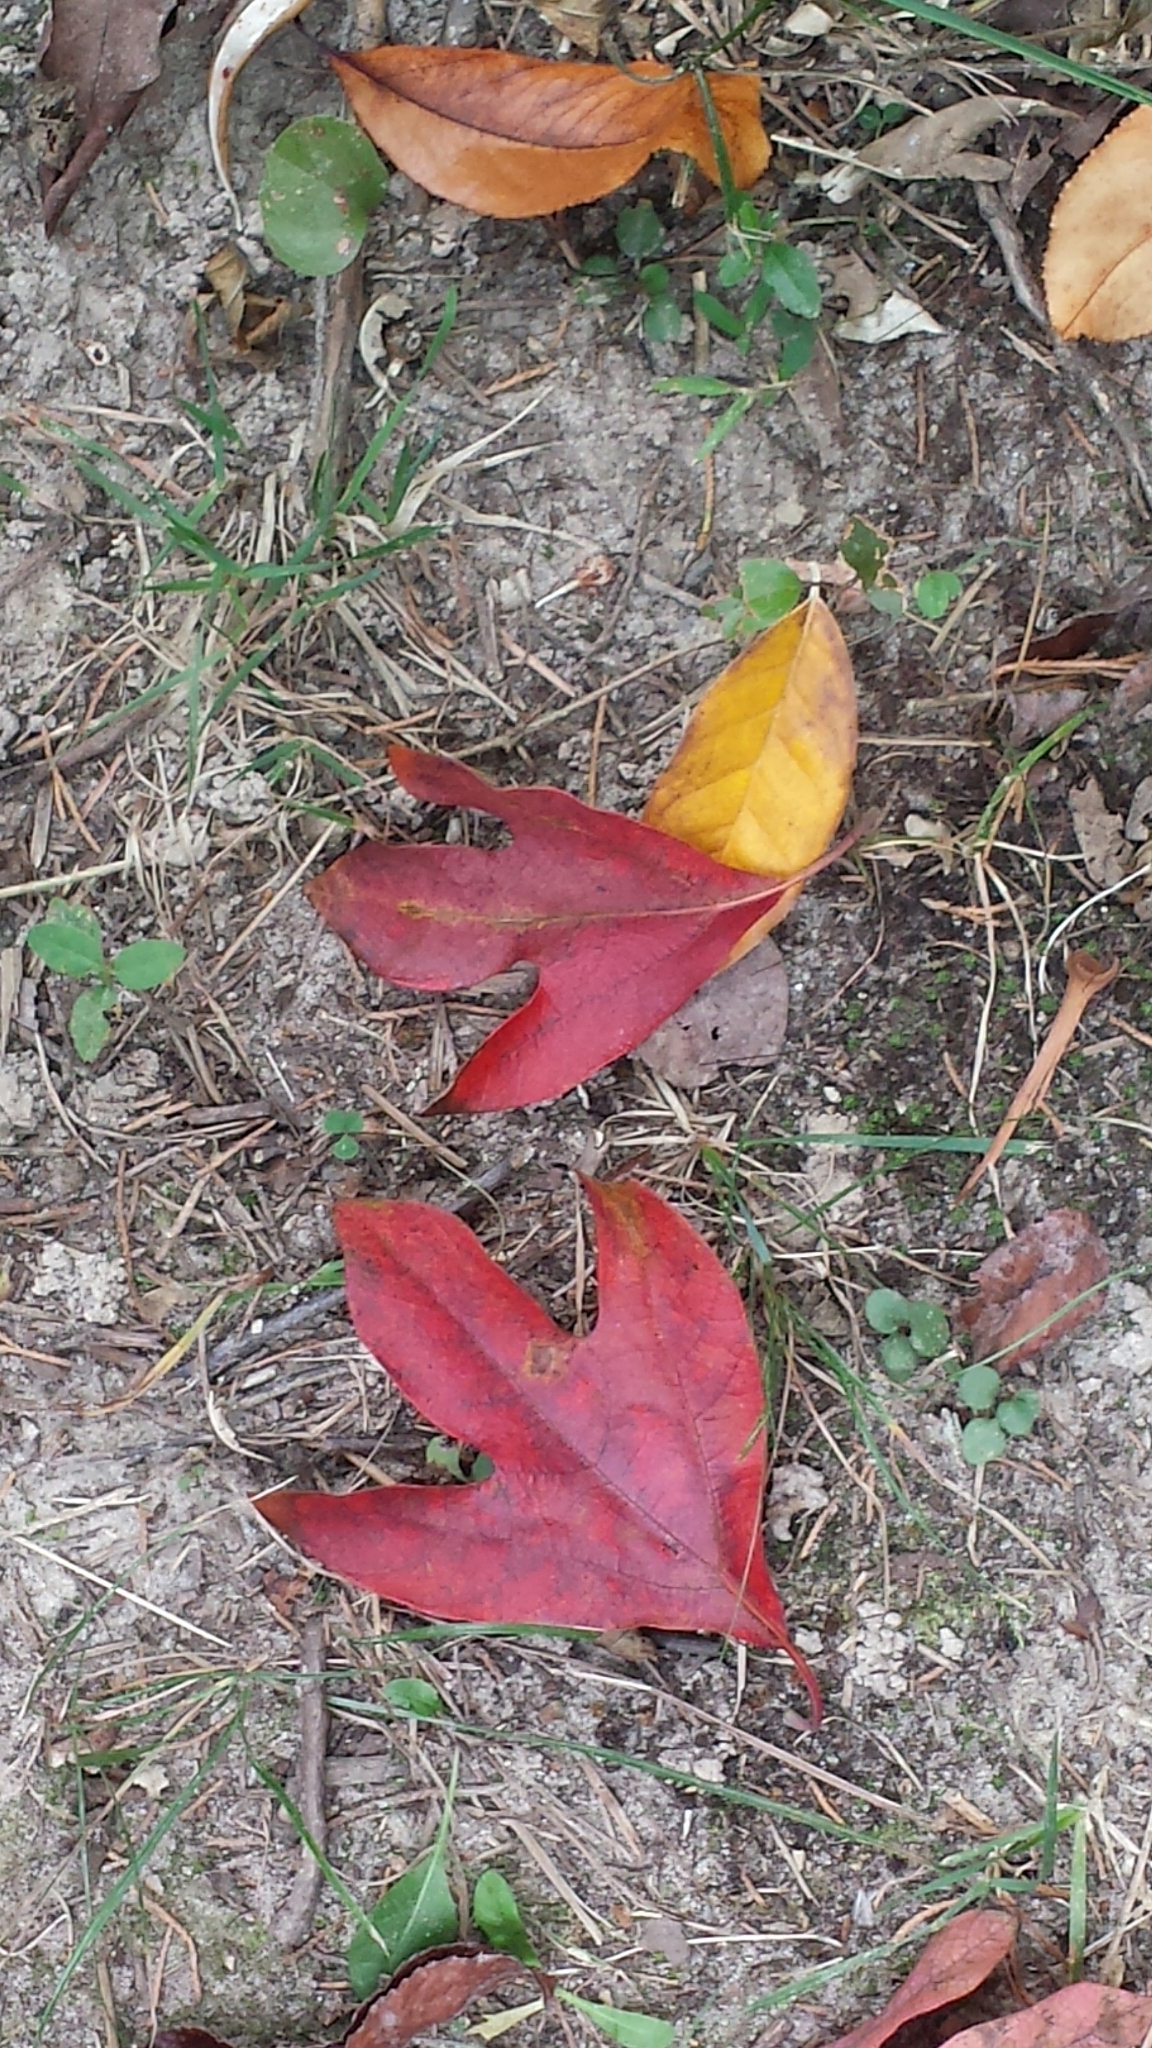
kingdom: Plantae
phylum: Tracheophyta
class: Magnoliopsida
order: Laurales
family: Lauraceae
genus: Sassafras
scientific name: Sassafras albidum
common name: Sassafras
